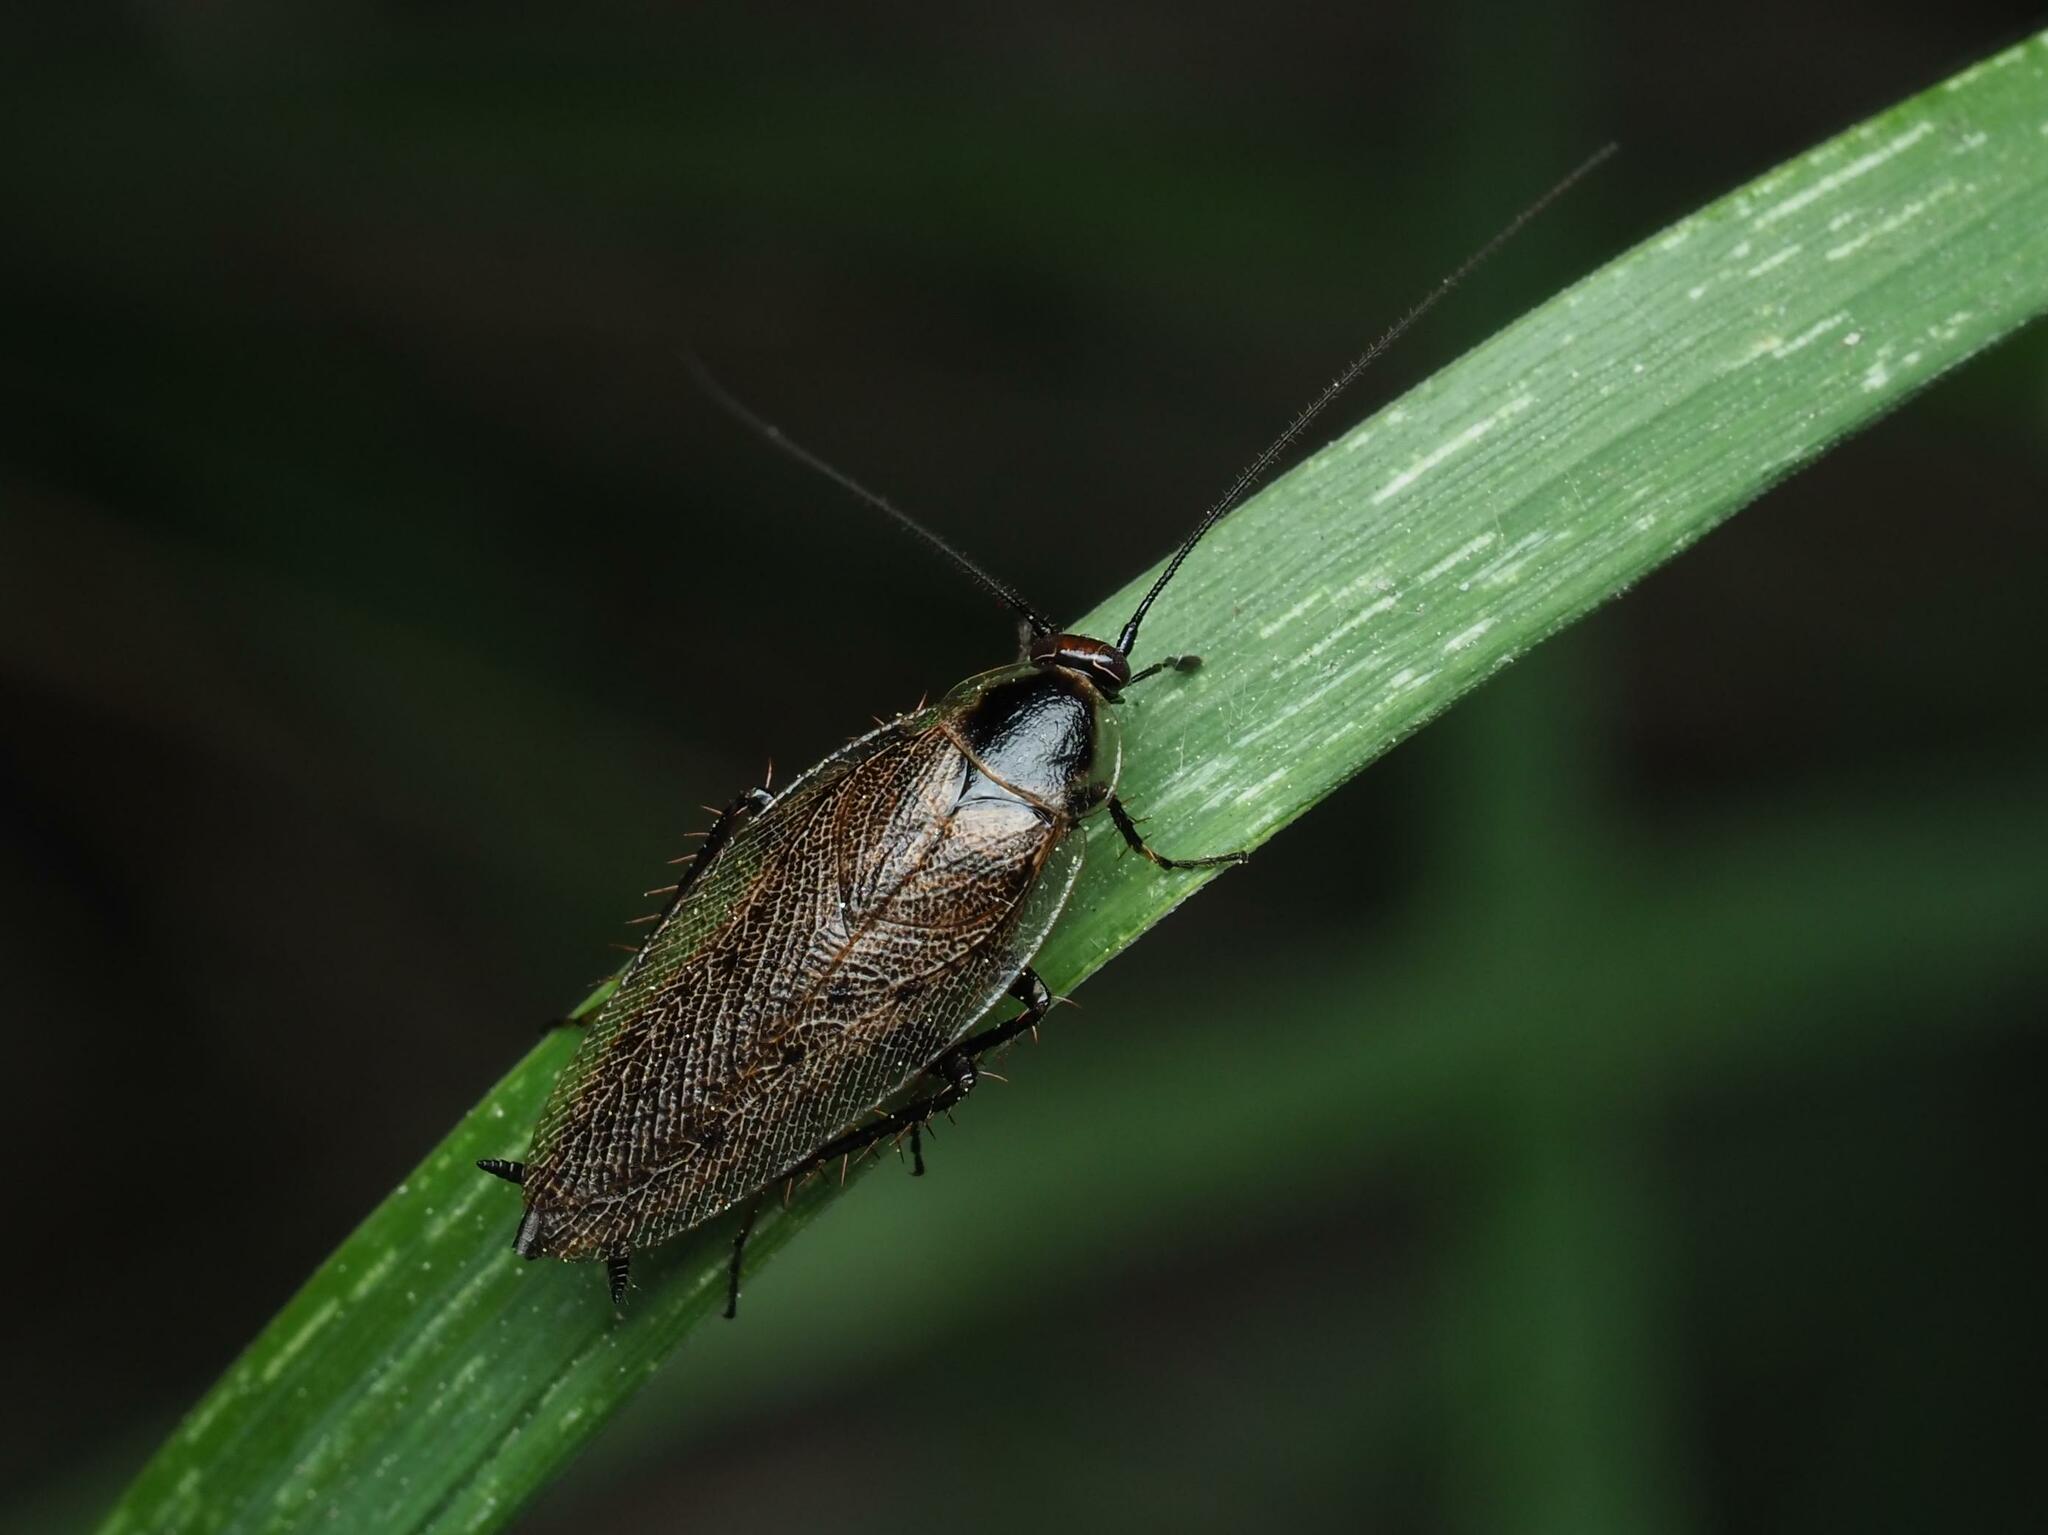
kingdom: Animalia
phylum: Arthropoda
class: Insecta
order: Blattodea
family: Ectobiidae
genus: Ectobius
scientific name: Ectobius lapponicus
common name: Dusky cockroach
